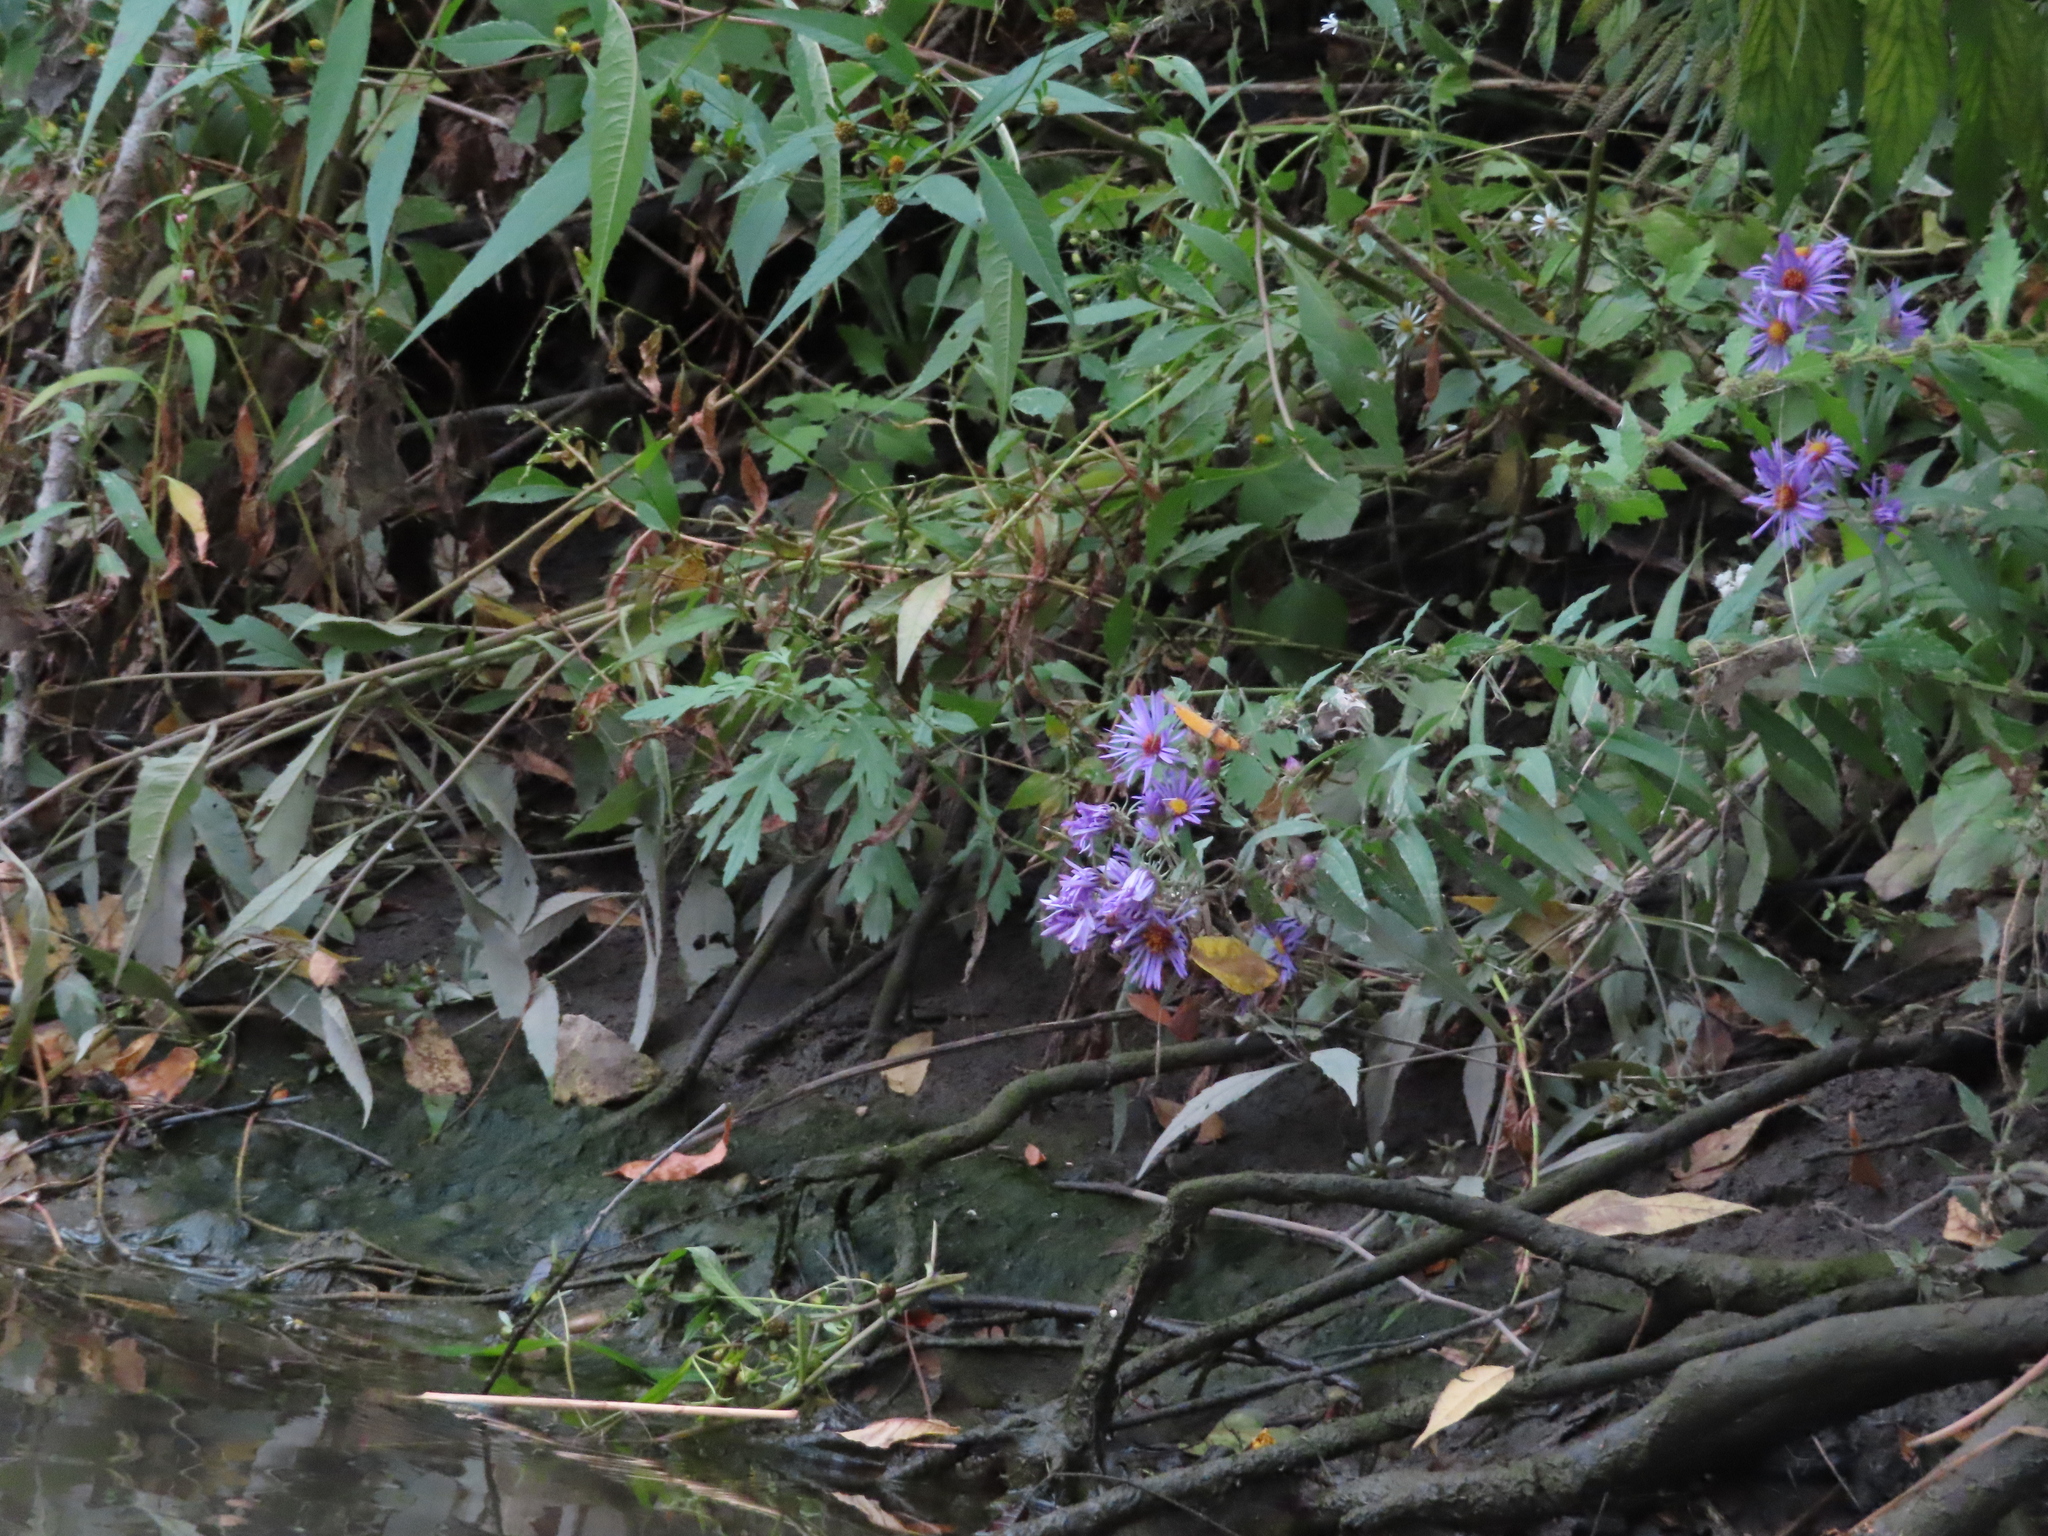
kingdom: Plantae
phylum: Tracheophyta
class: Magnoliopsida
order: Asterales
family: Asteraceae
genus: Symphyotrichum
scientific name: Symphyotrichum novae-angliae
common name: Michaelmas daisy
